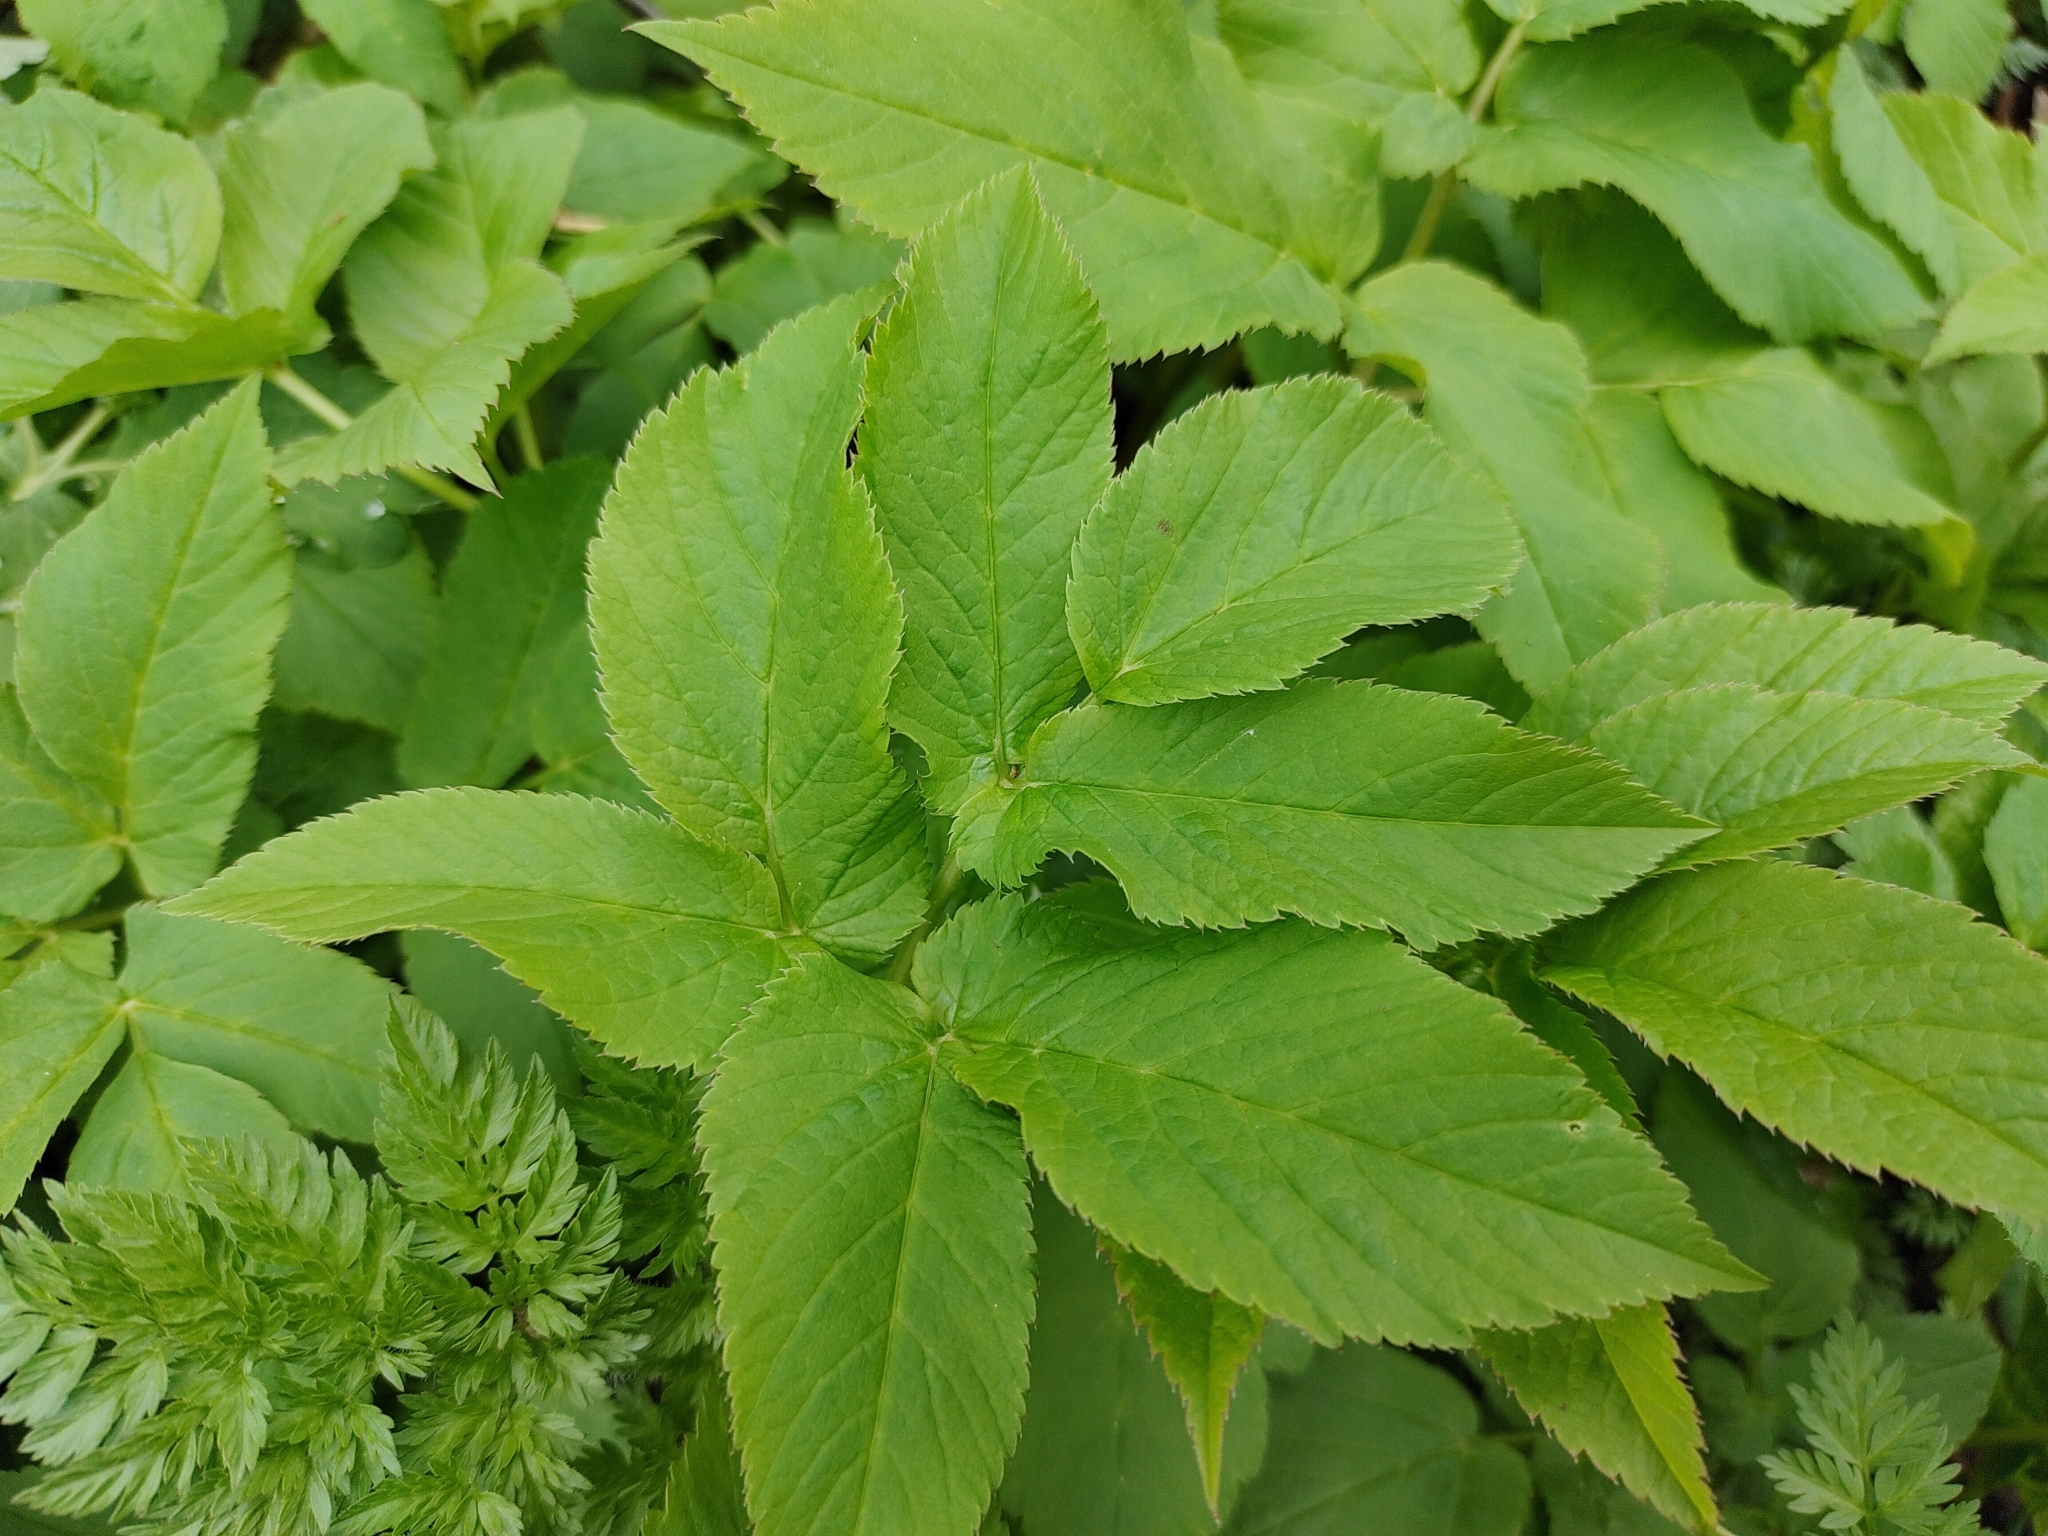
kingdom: Plantae
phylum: Tracheophyta
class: Magnoliopsida
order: Apiales
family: Apiaceae
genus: Aegopodium
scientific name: Aegopodium podagraria
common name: Ground-elder
